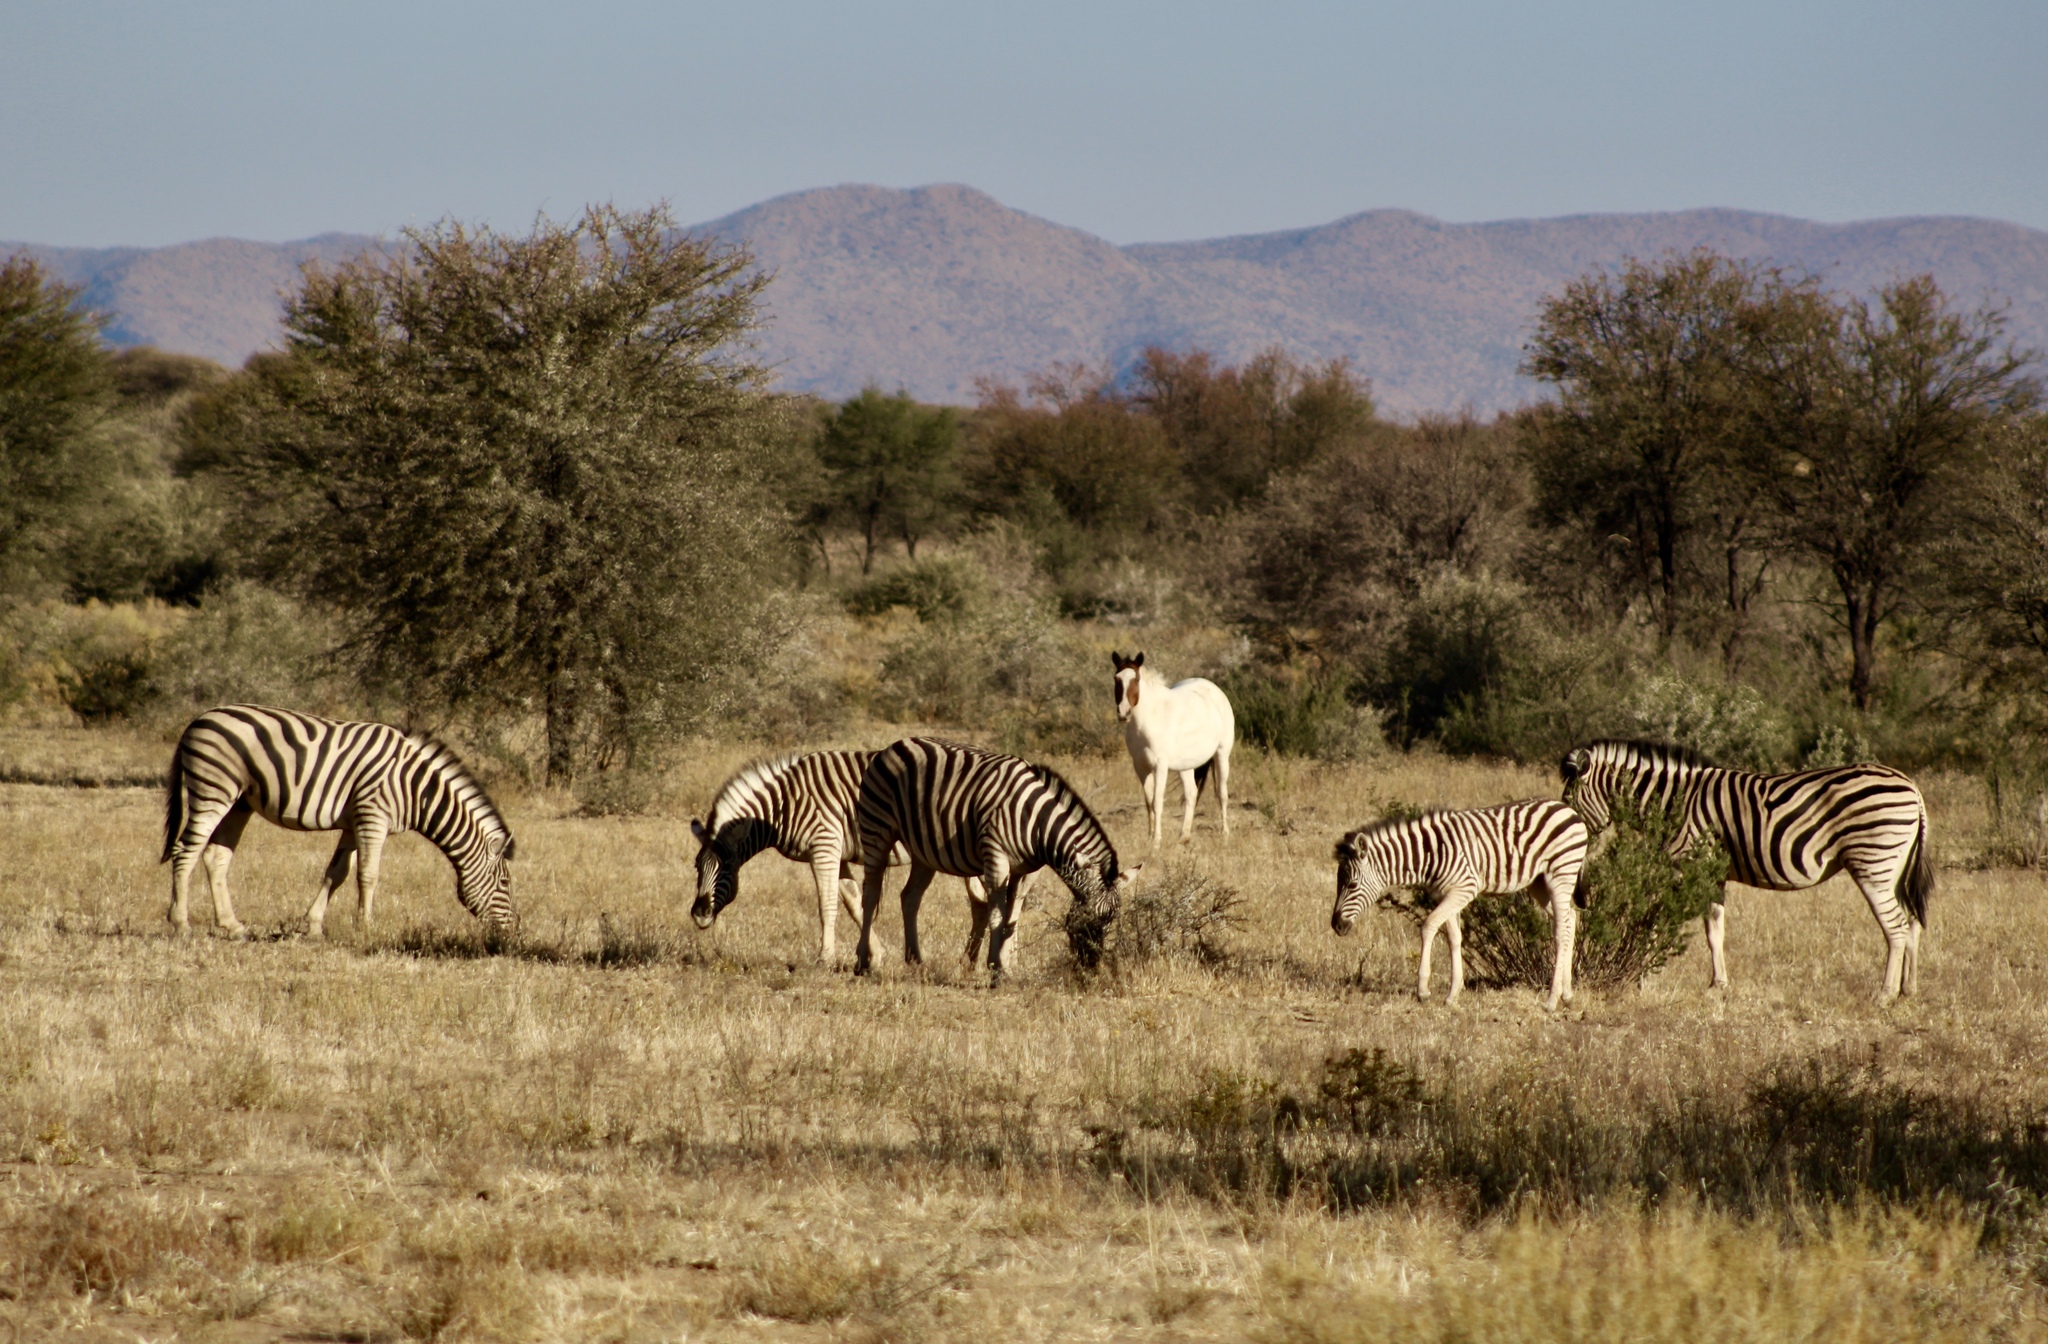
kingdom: Animalia
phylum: Chordata
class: Mammalia
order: Perissodactyla
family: Equidae
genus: Equus
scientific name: Equus quagga
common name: Plains zebra
